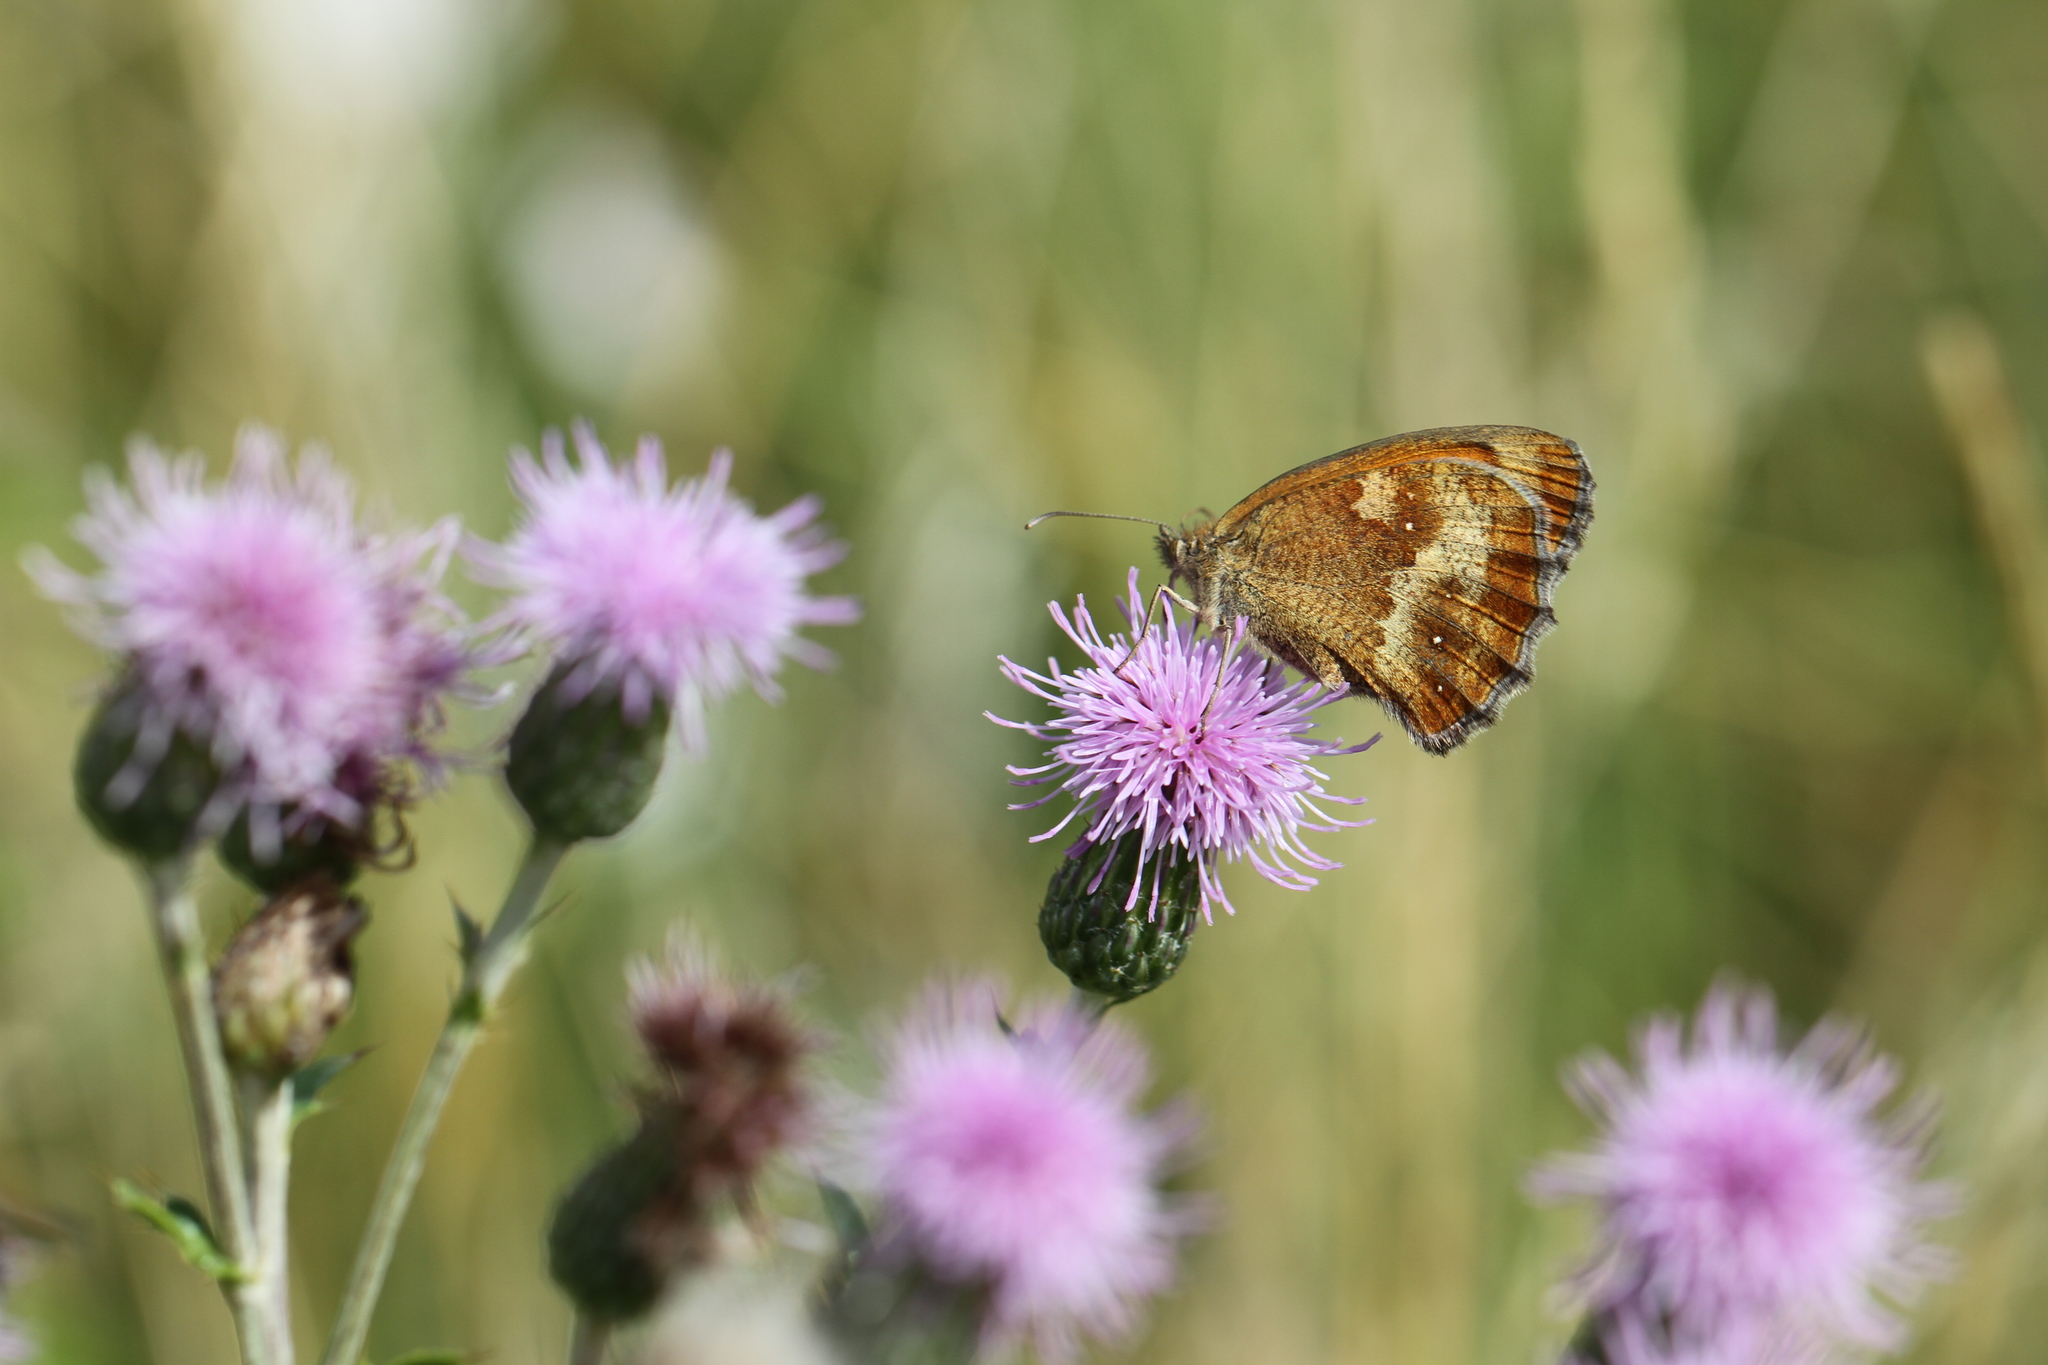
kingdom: Animalia
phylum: Arthropoda
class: Insecta
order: Lepidoptera
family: Nymphalidae
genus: Pyronia
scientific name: Pyronia tithonus
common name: Gatekeeper
